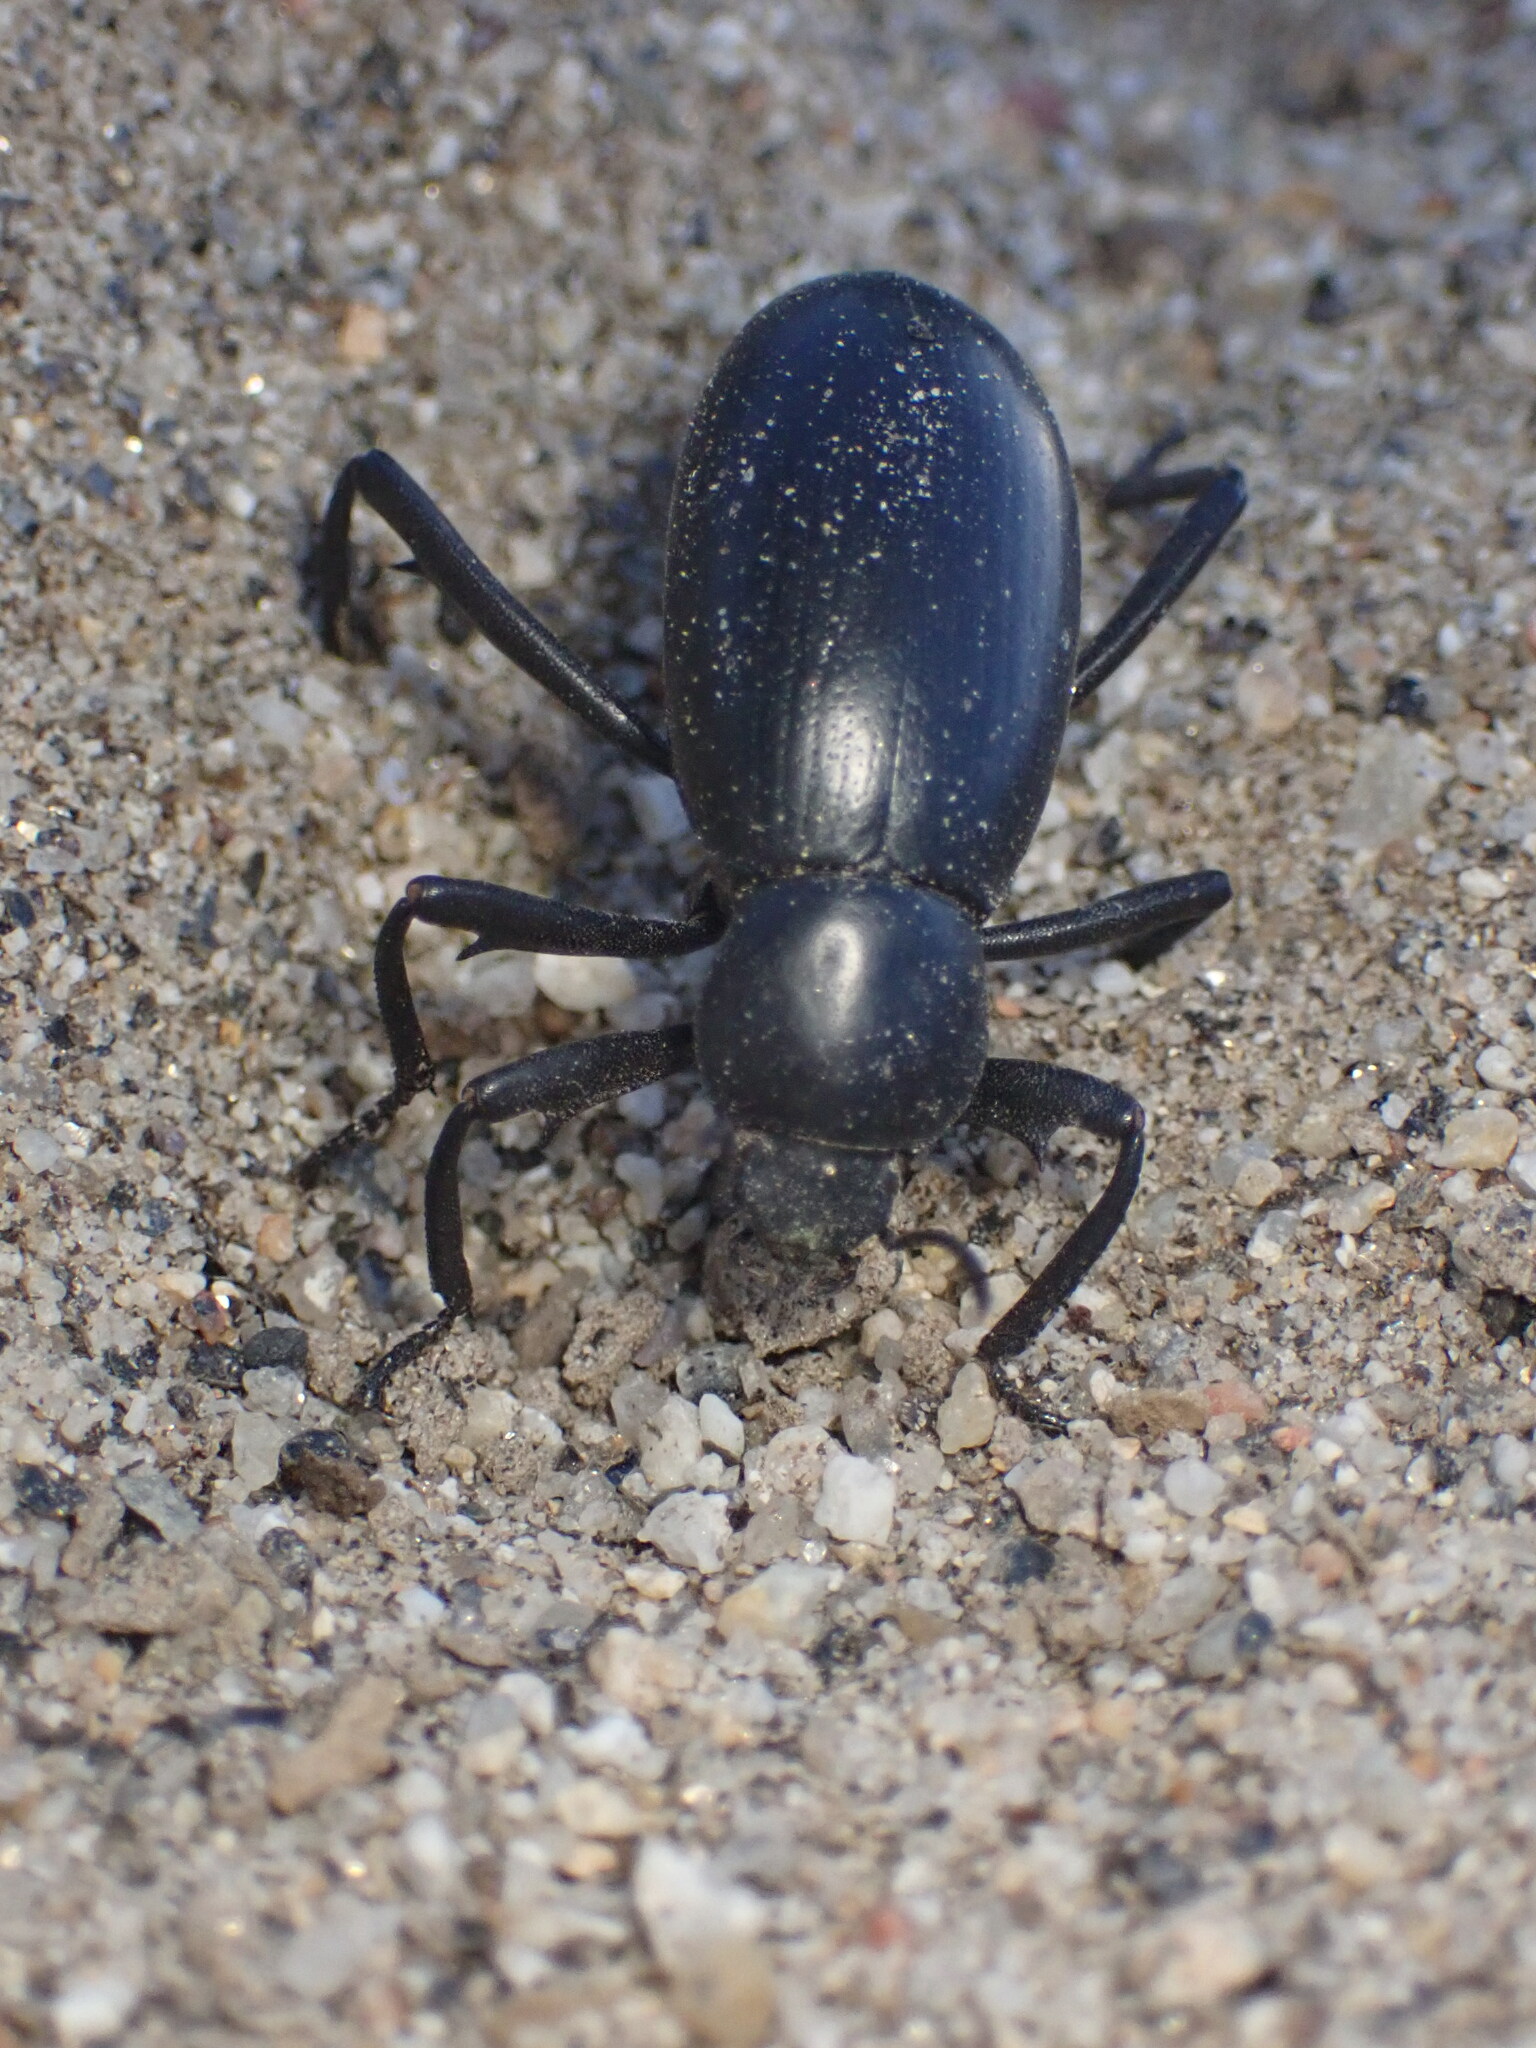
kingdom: Animalia
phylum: Arthropoda
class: Insecta
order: Coleoptera
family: Tenebrionidae
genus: Eleodes
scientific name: Eleodes armata
